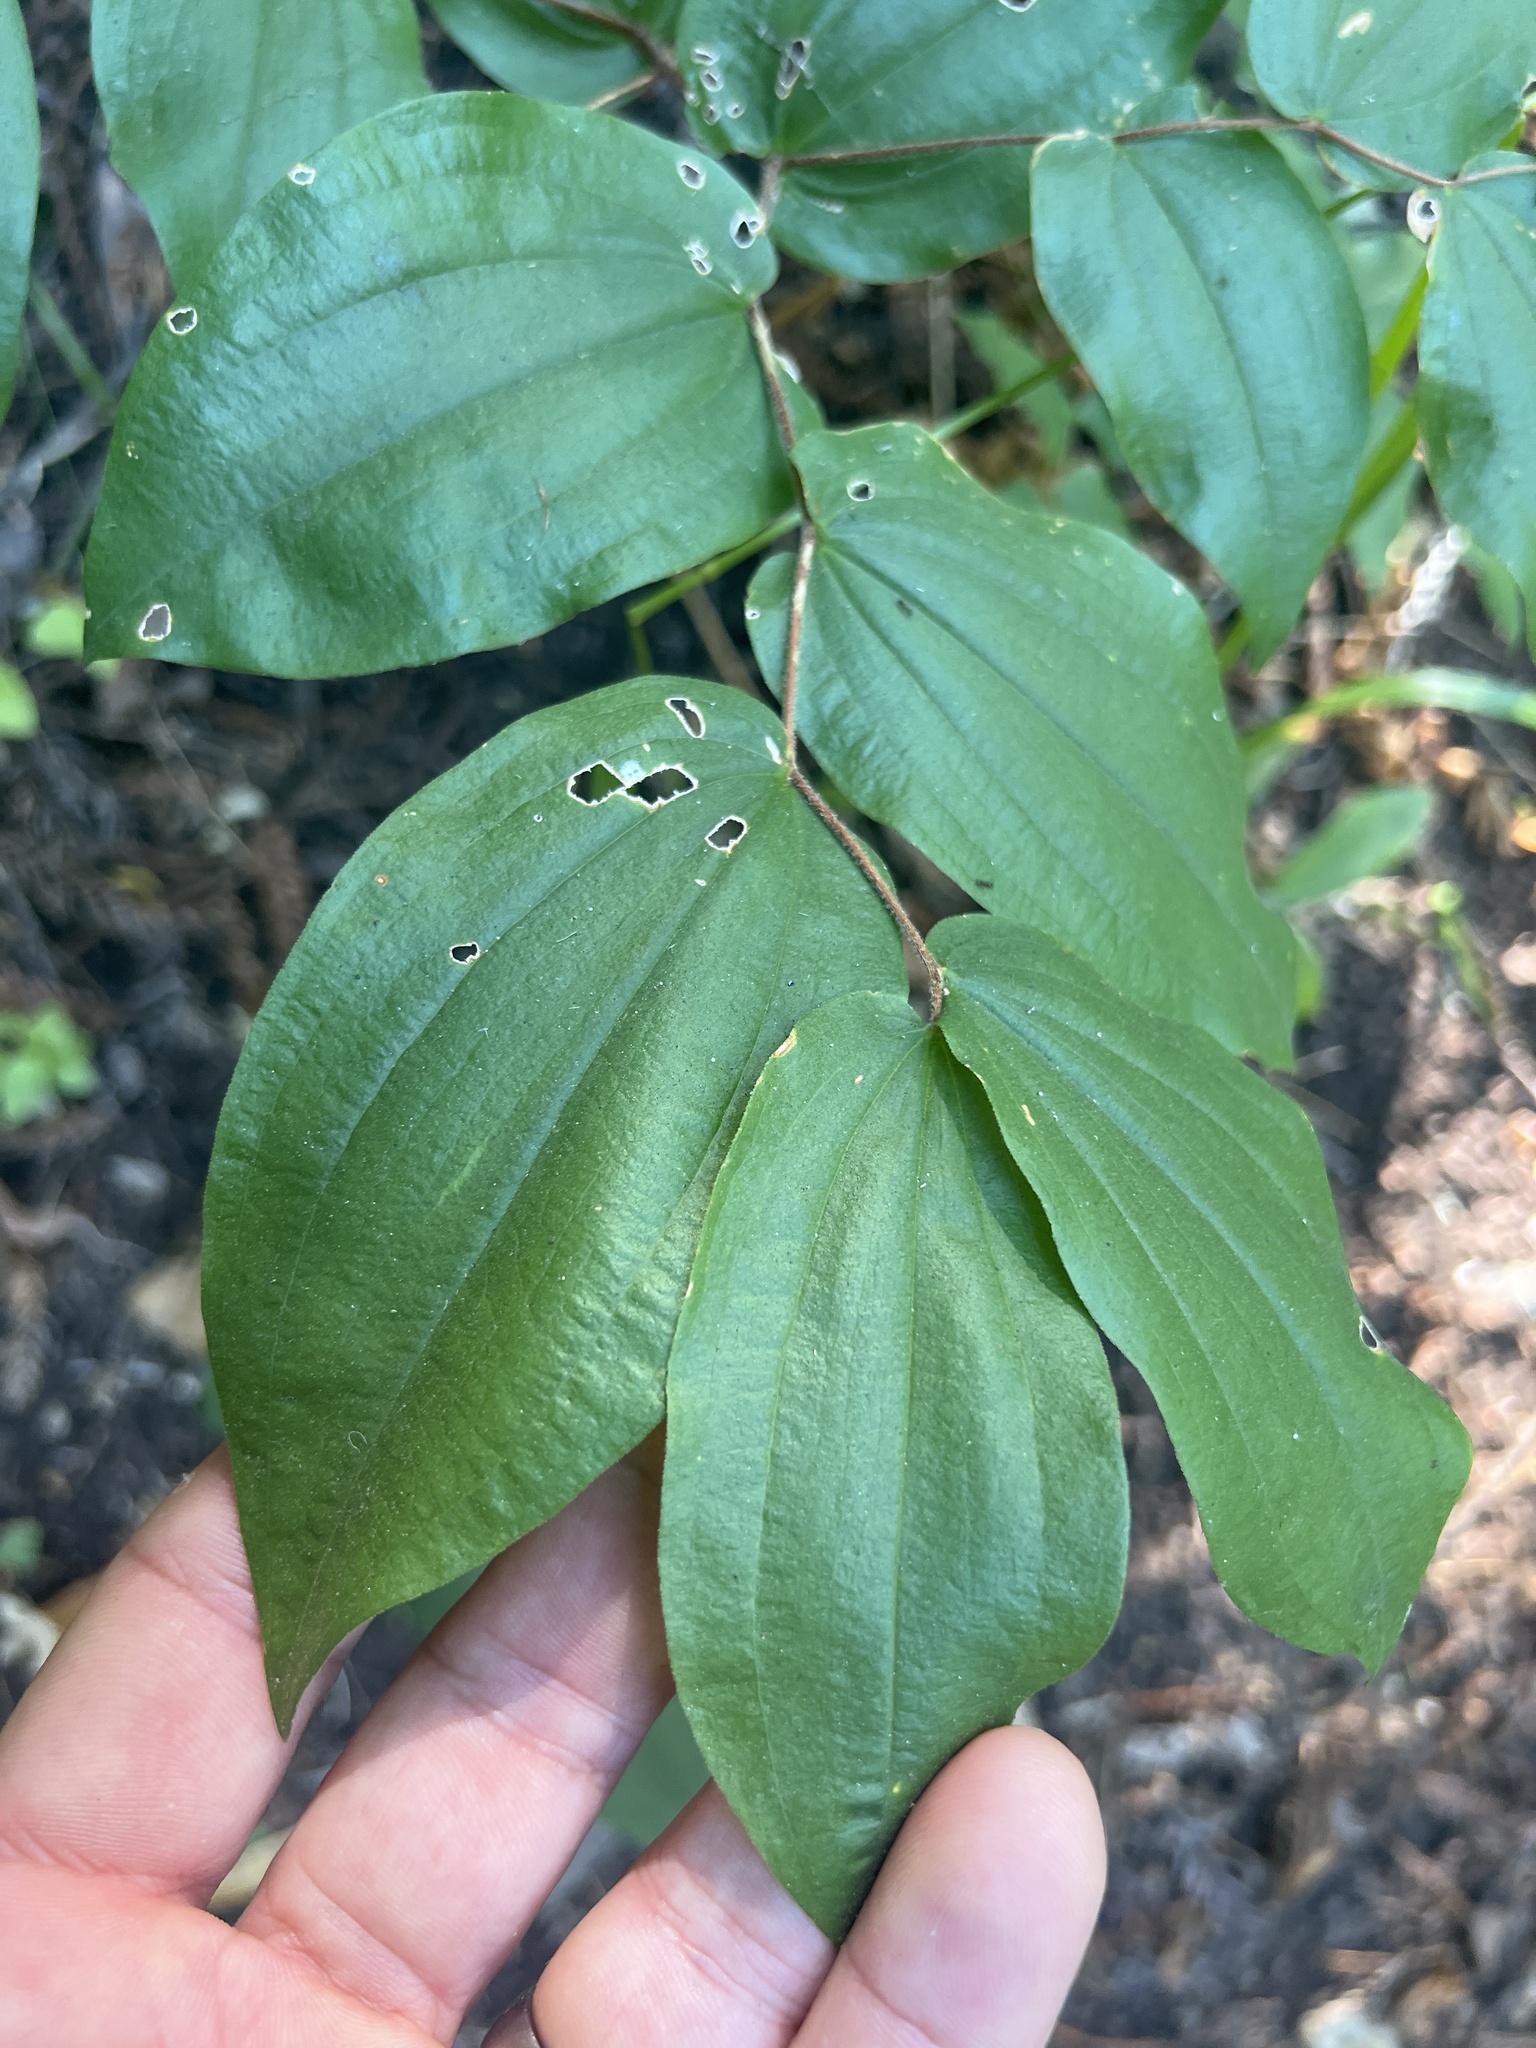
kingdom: Plantae
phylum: Tracheophyta
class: Liliopsida
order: Liliales
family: Liliaceae
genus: Prosartes
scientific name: Prosartes hookeri
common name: Fairy-bells
